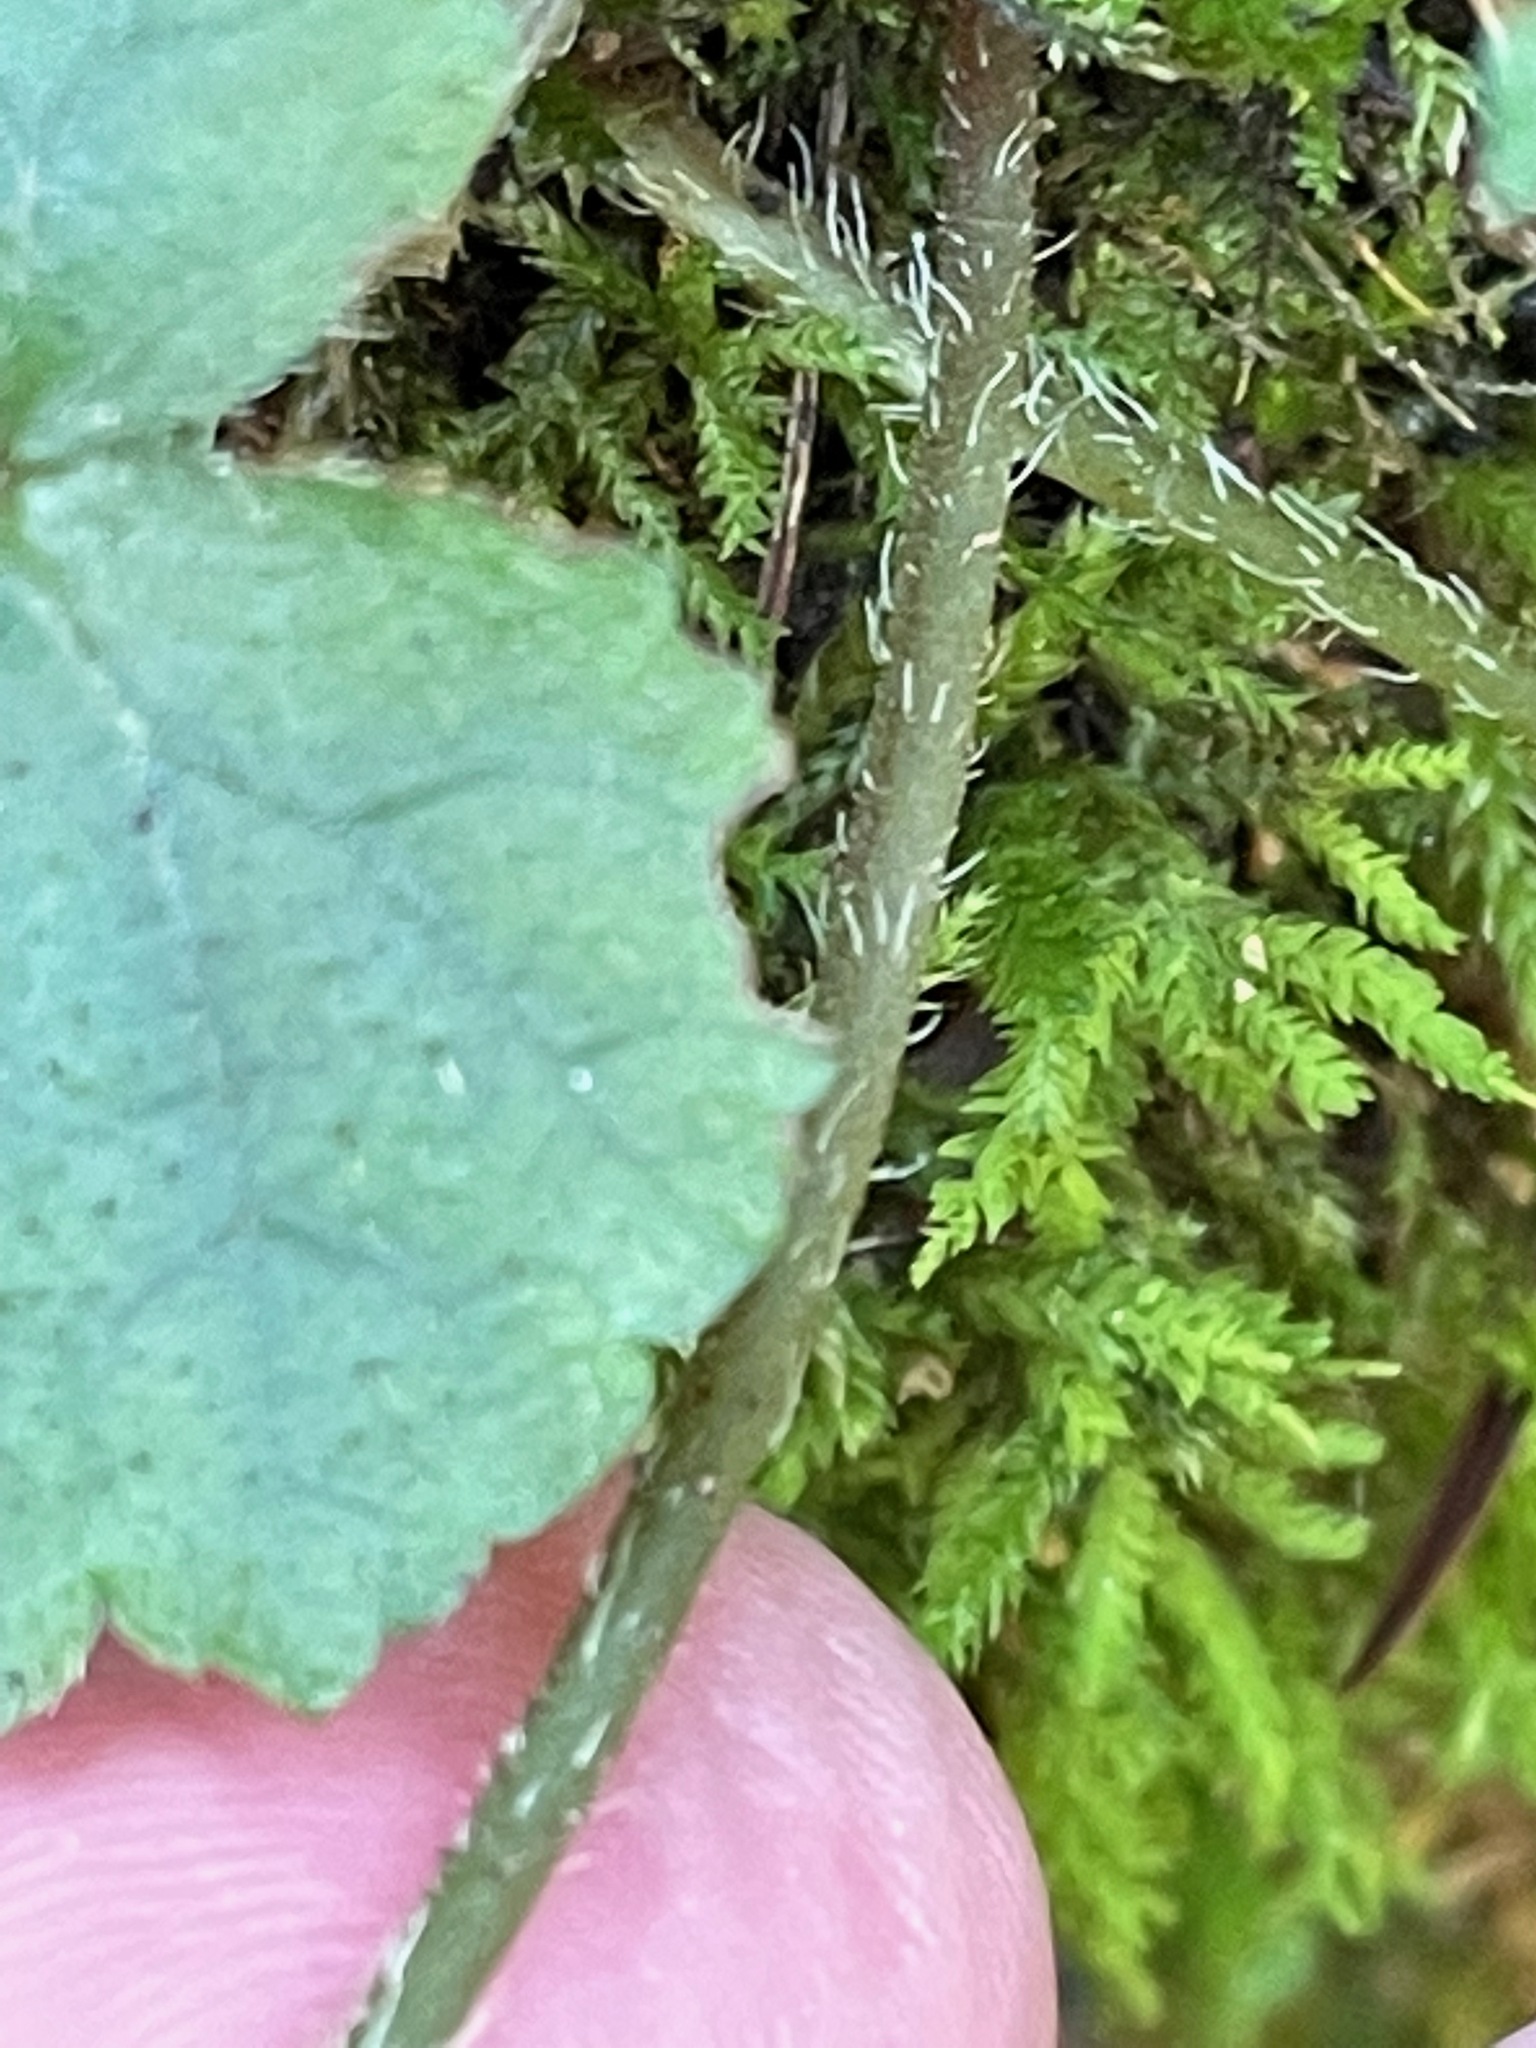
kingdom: Plantae
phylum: Tracheophyta
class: Magnoliopsida
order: Saxifragales
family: Saxifragaceae
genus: Mitella
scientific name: Mitella diphylla
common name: Coolwort
